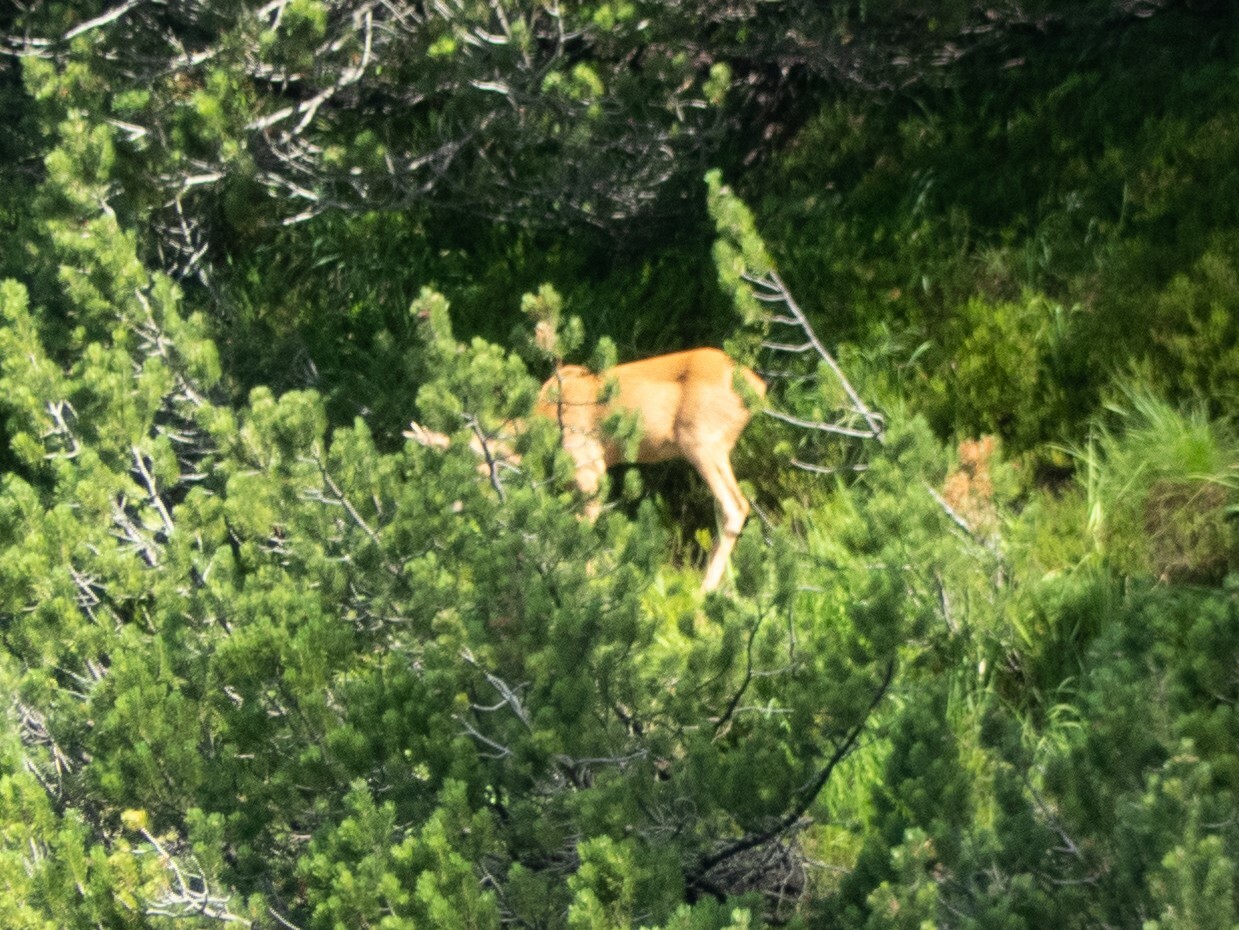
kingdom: Animalia
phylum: Chordata
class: Mammalia
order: Artiodactyla
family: Cervidae
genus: Capreolus
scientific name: Capreolus capreolus
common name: Western roe deer
